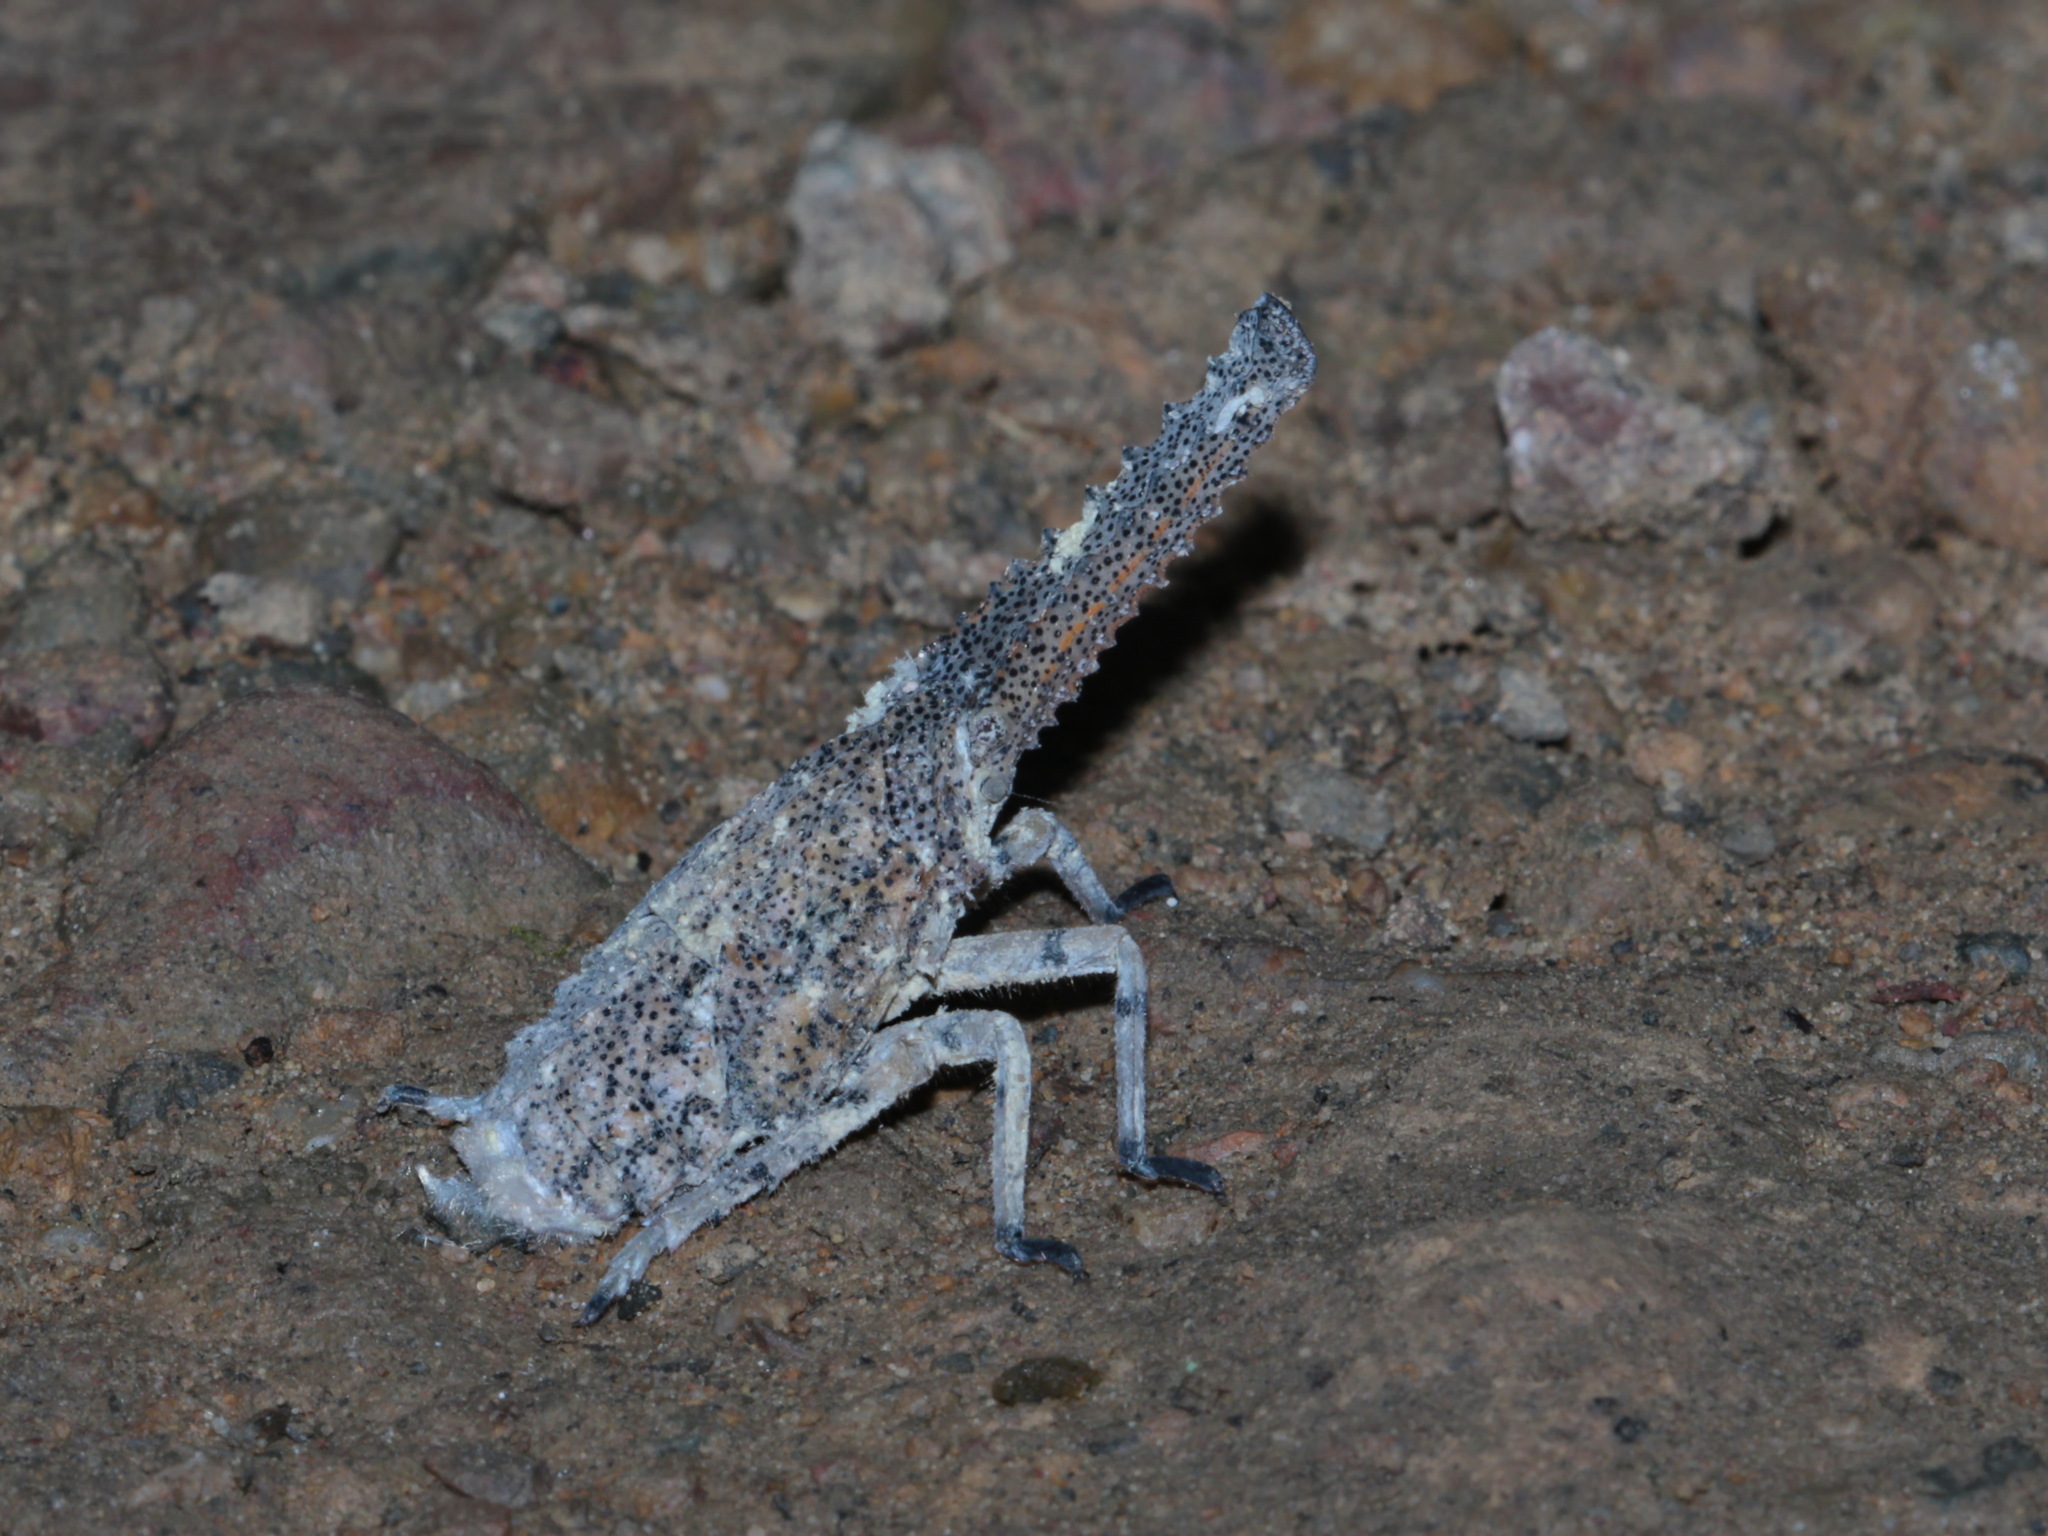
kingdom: Animalia
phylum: Arthropoda
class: Insecta
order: Hemiptera
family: Fulgoridae
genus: Zanna
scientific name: Zanna nobilis
